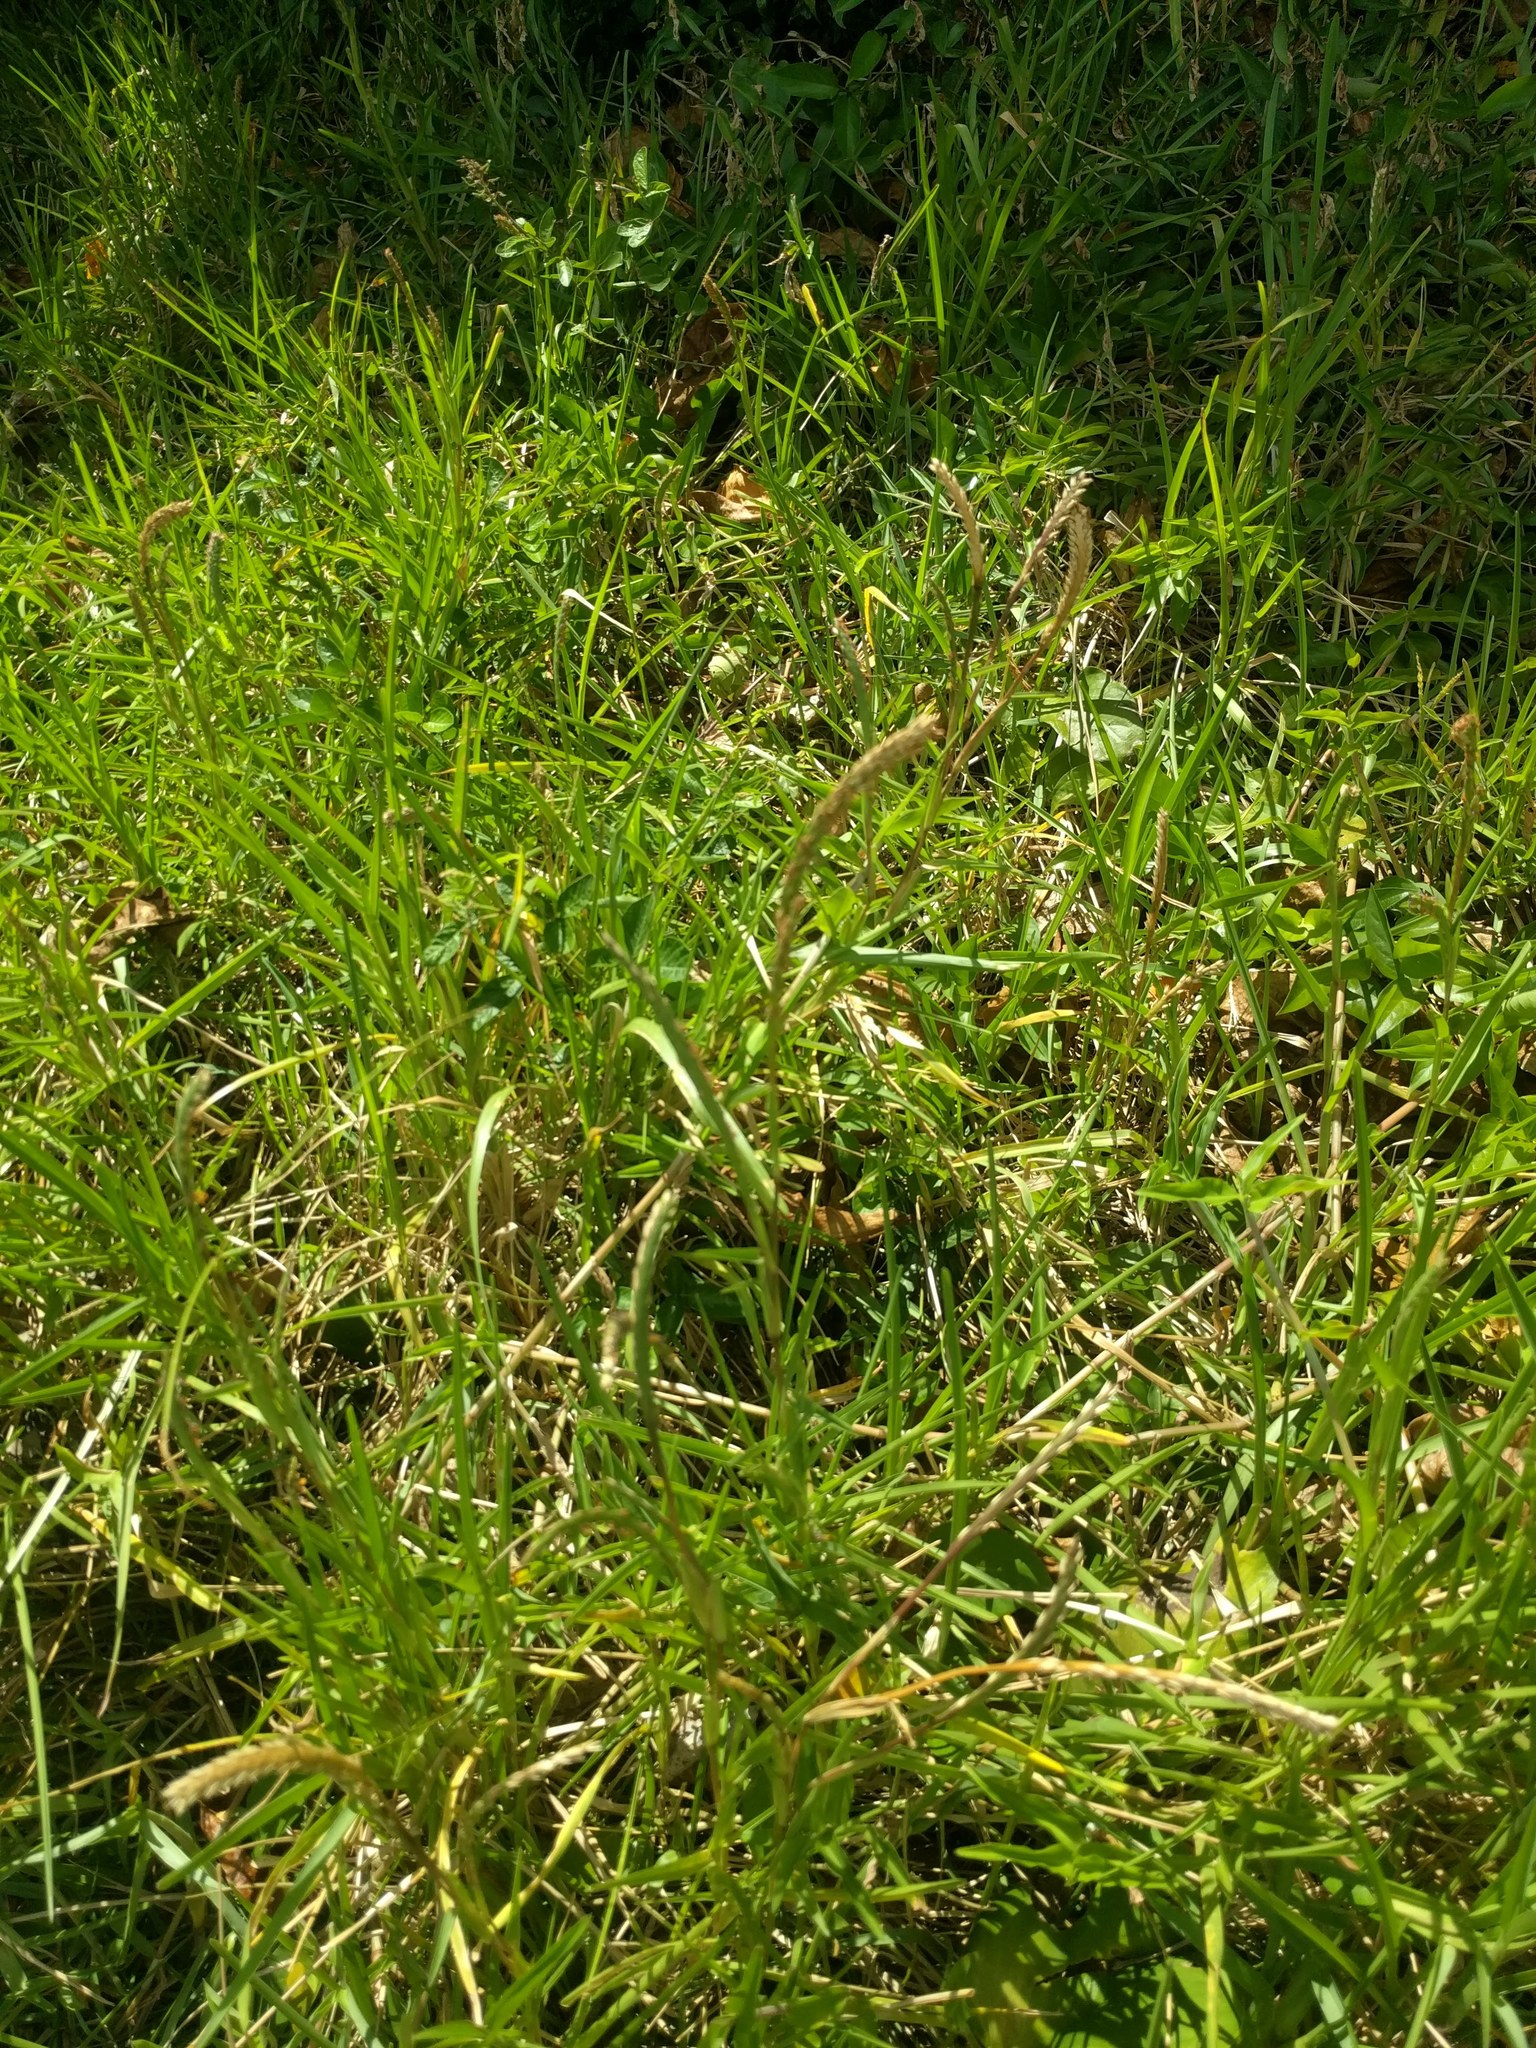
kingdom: Plantae
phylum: Tracheophyta
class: Liliopsida
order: Poales
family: Poaceae
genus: Stenotaphrum
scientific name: Stenotaphrum secundatum
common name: St. augustine grass
